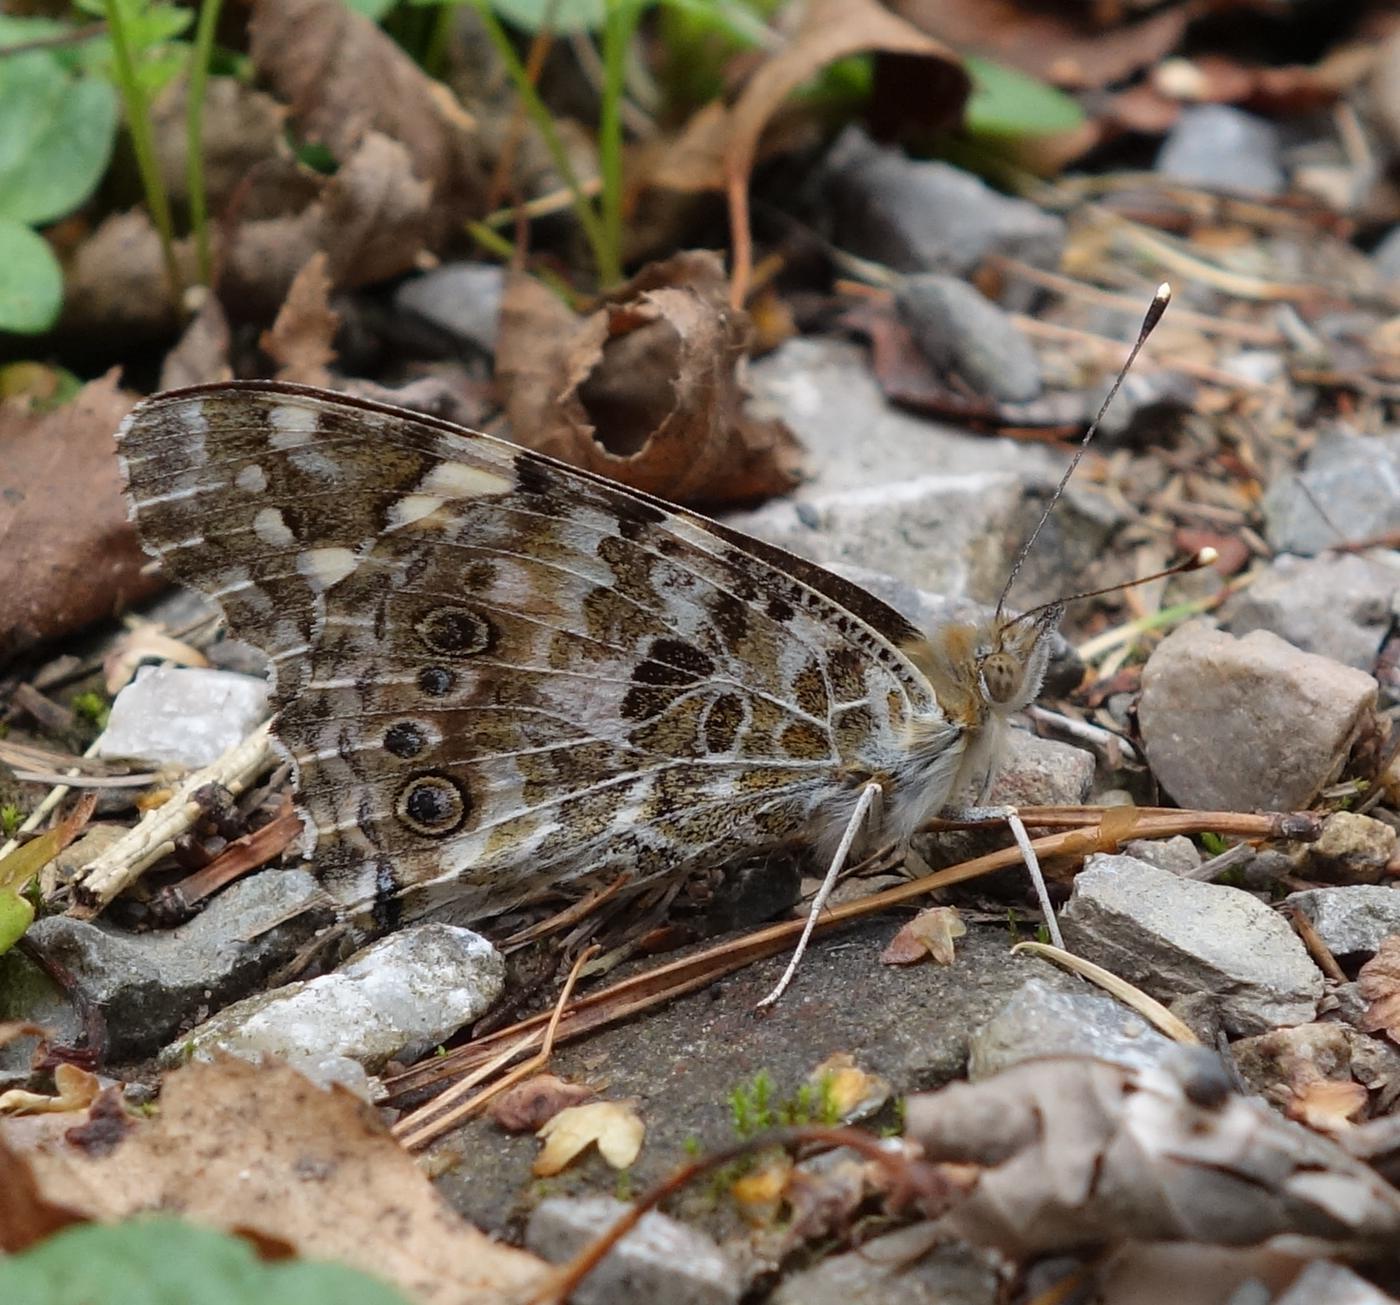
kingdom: Animalia
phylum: Arthropoda
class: Insecta
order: Lepidoptera
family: Nymphalidae
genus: Vanessa
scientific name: Vanessa cardui
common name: Painted lady
